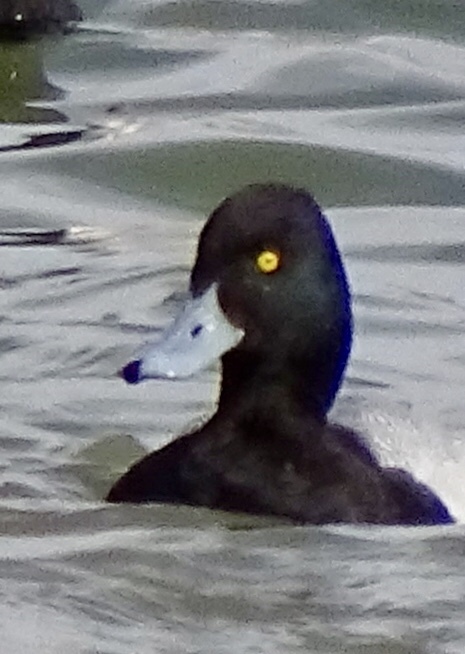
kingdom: Animalia
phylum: Chordata
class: Aves
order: Anseriformes
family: Anatidae
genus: Aythya
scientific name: Aythya affinis
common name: Lesser scaup
